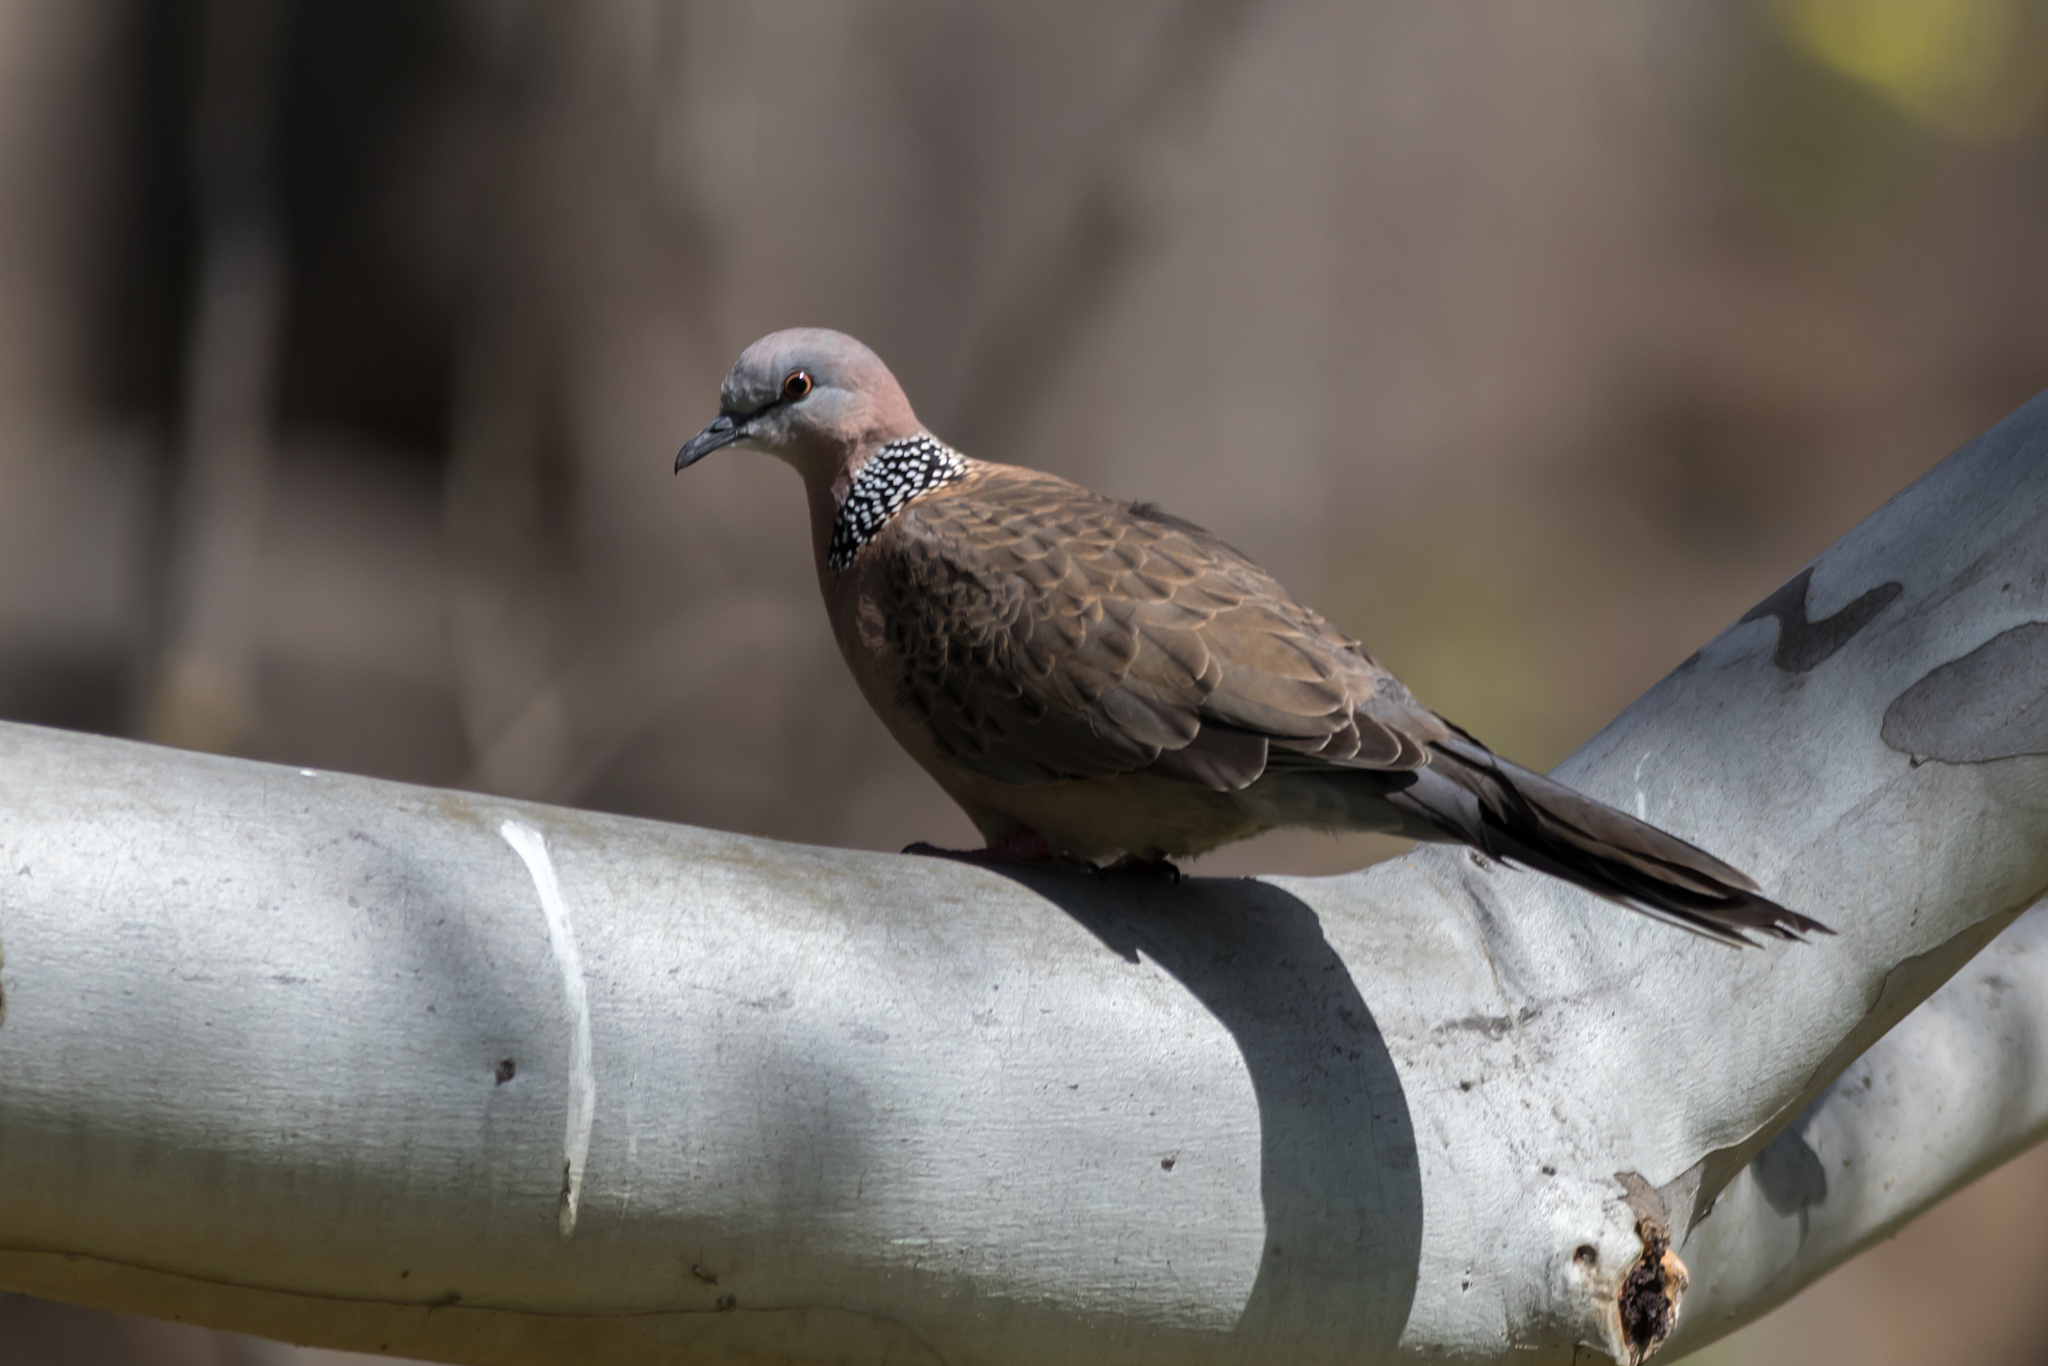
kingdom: Animalia
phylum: Chordata
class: Aves
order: Columbiformes
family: Columbidae
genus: Spilopelia
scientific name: Spilopelia chinensis
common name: Spotted dove
